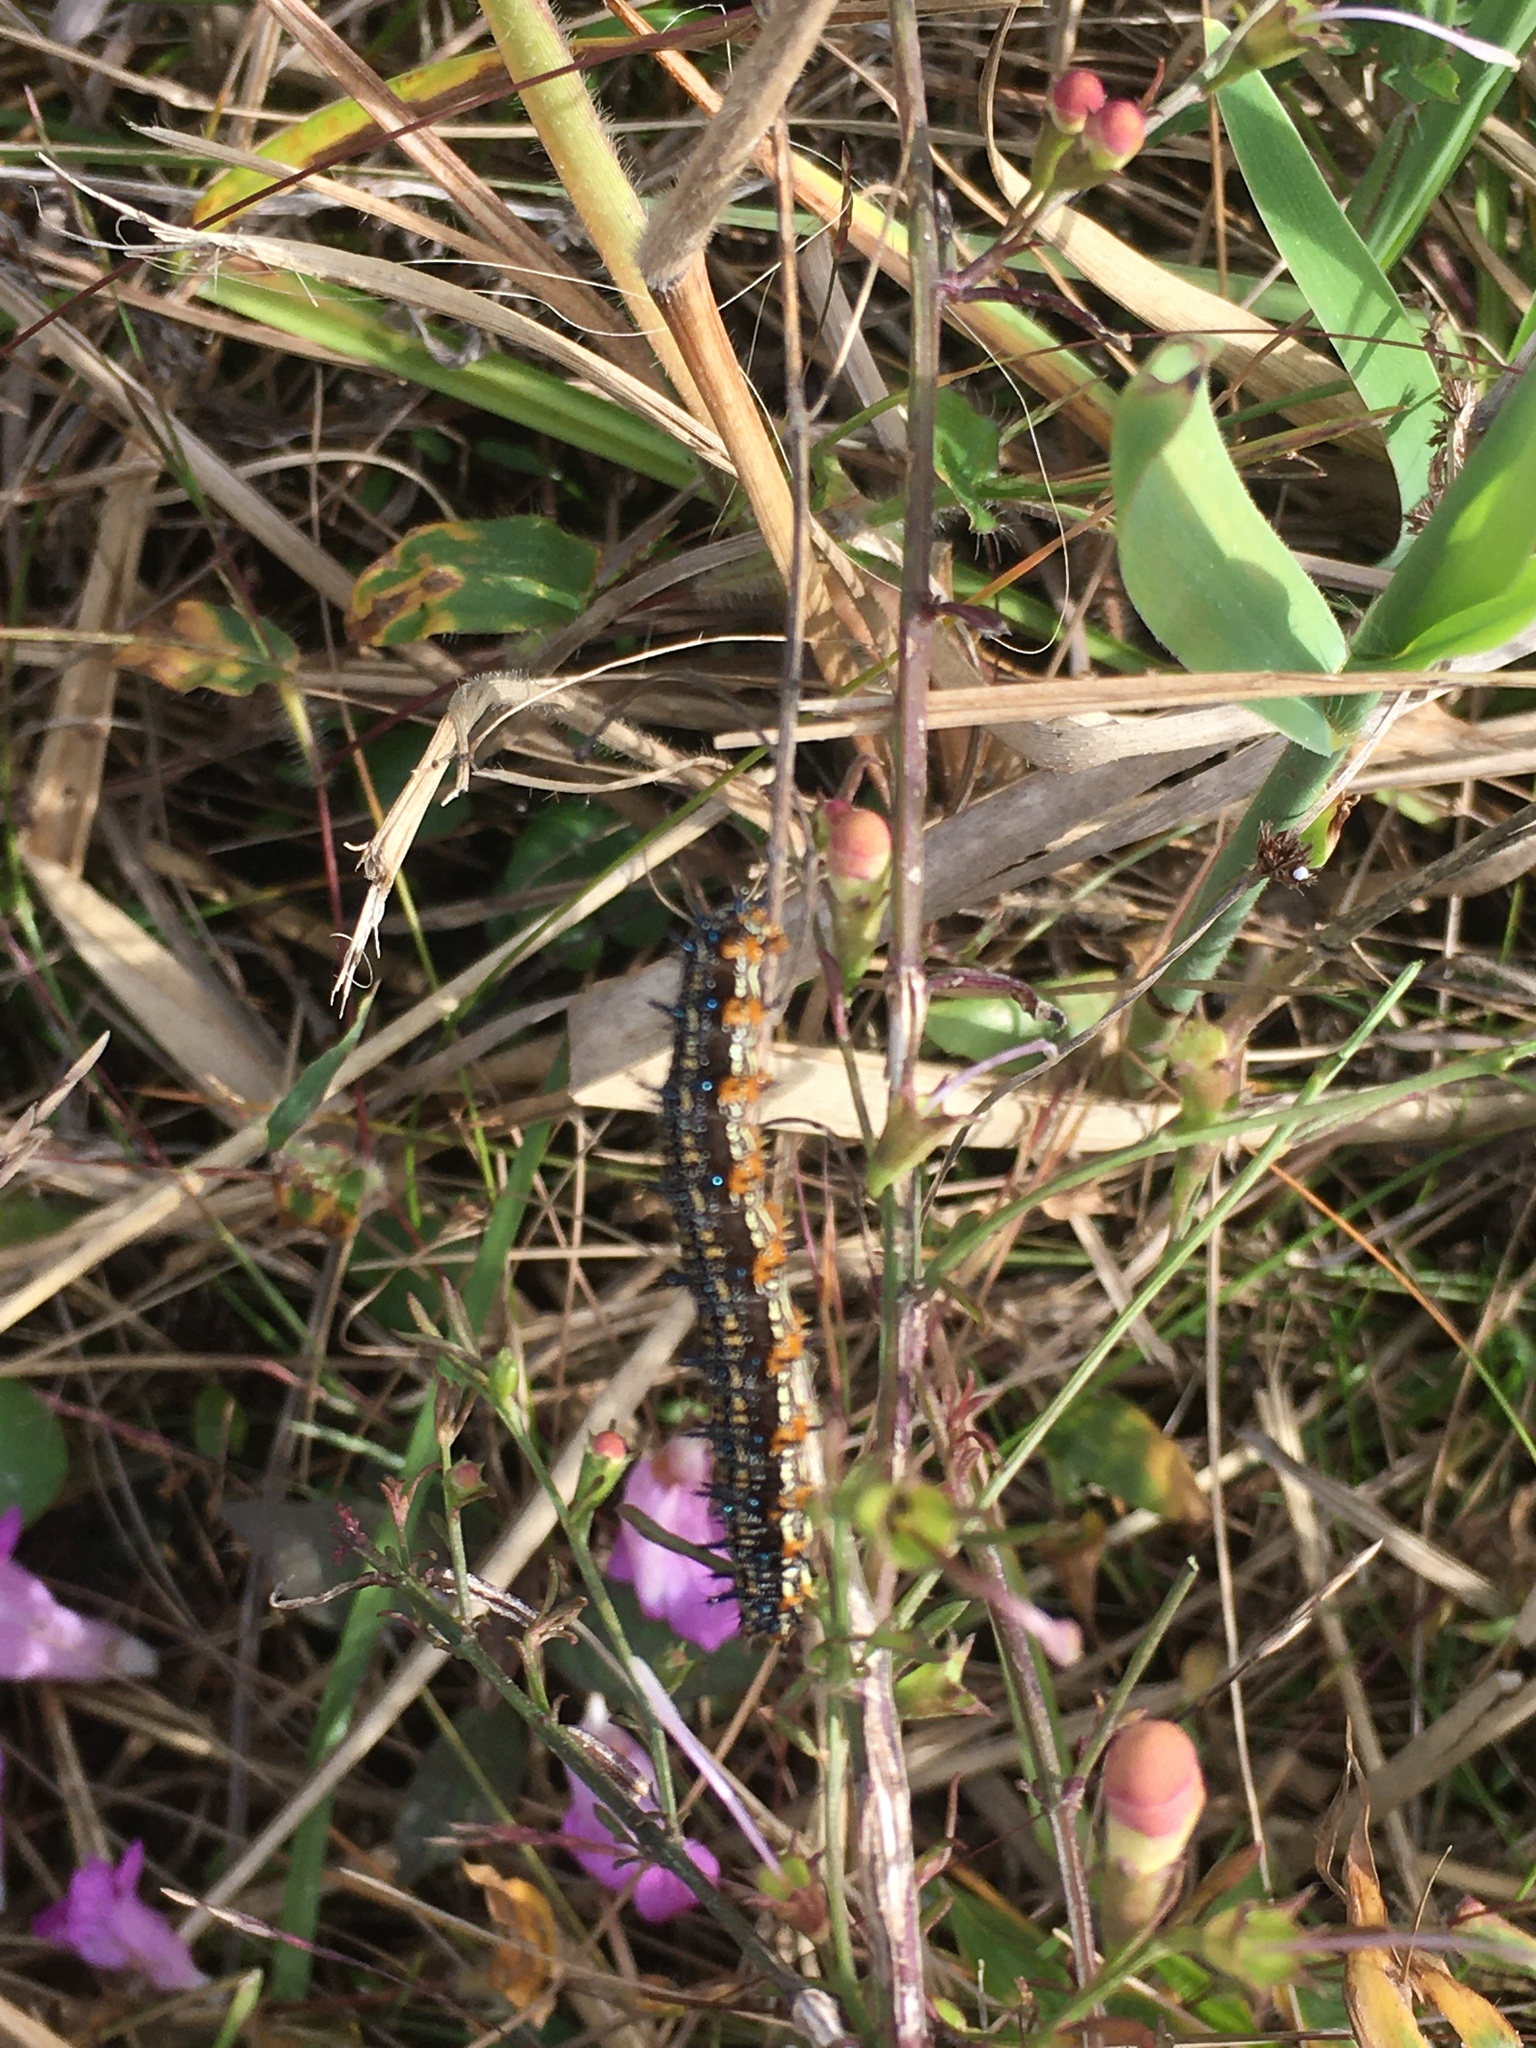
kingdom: Animalia
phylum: Arthropoda
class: Insecta
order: Lepidoptera
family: Nymphalidae
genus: Junonia
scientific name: Junonia coenia
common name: Common buckeye
